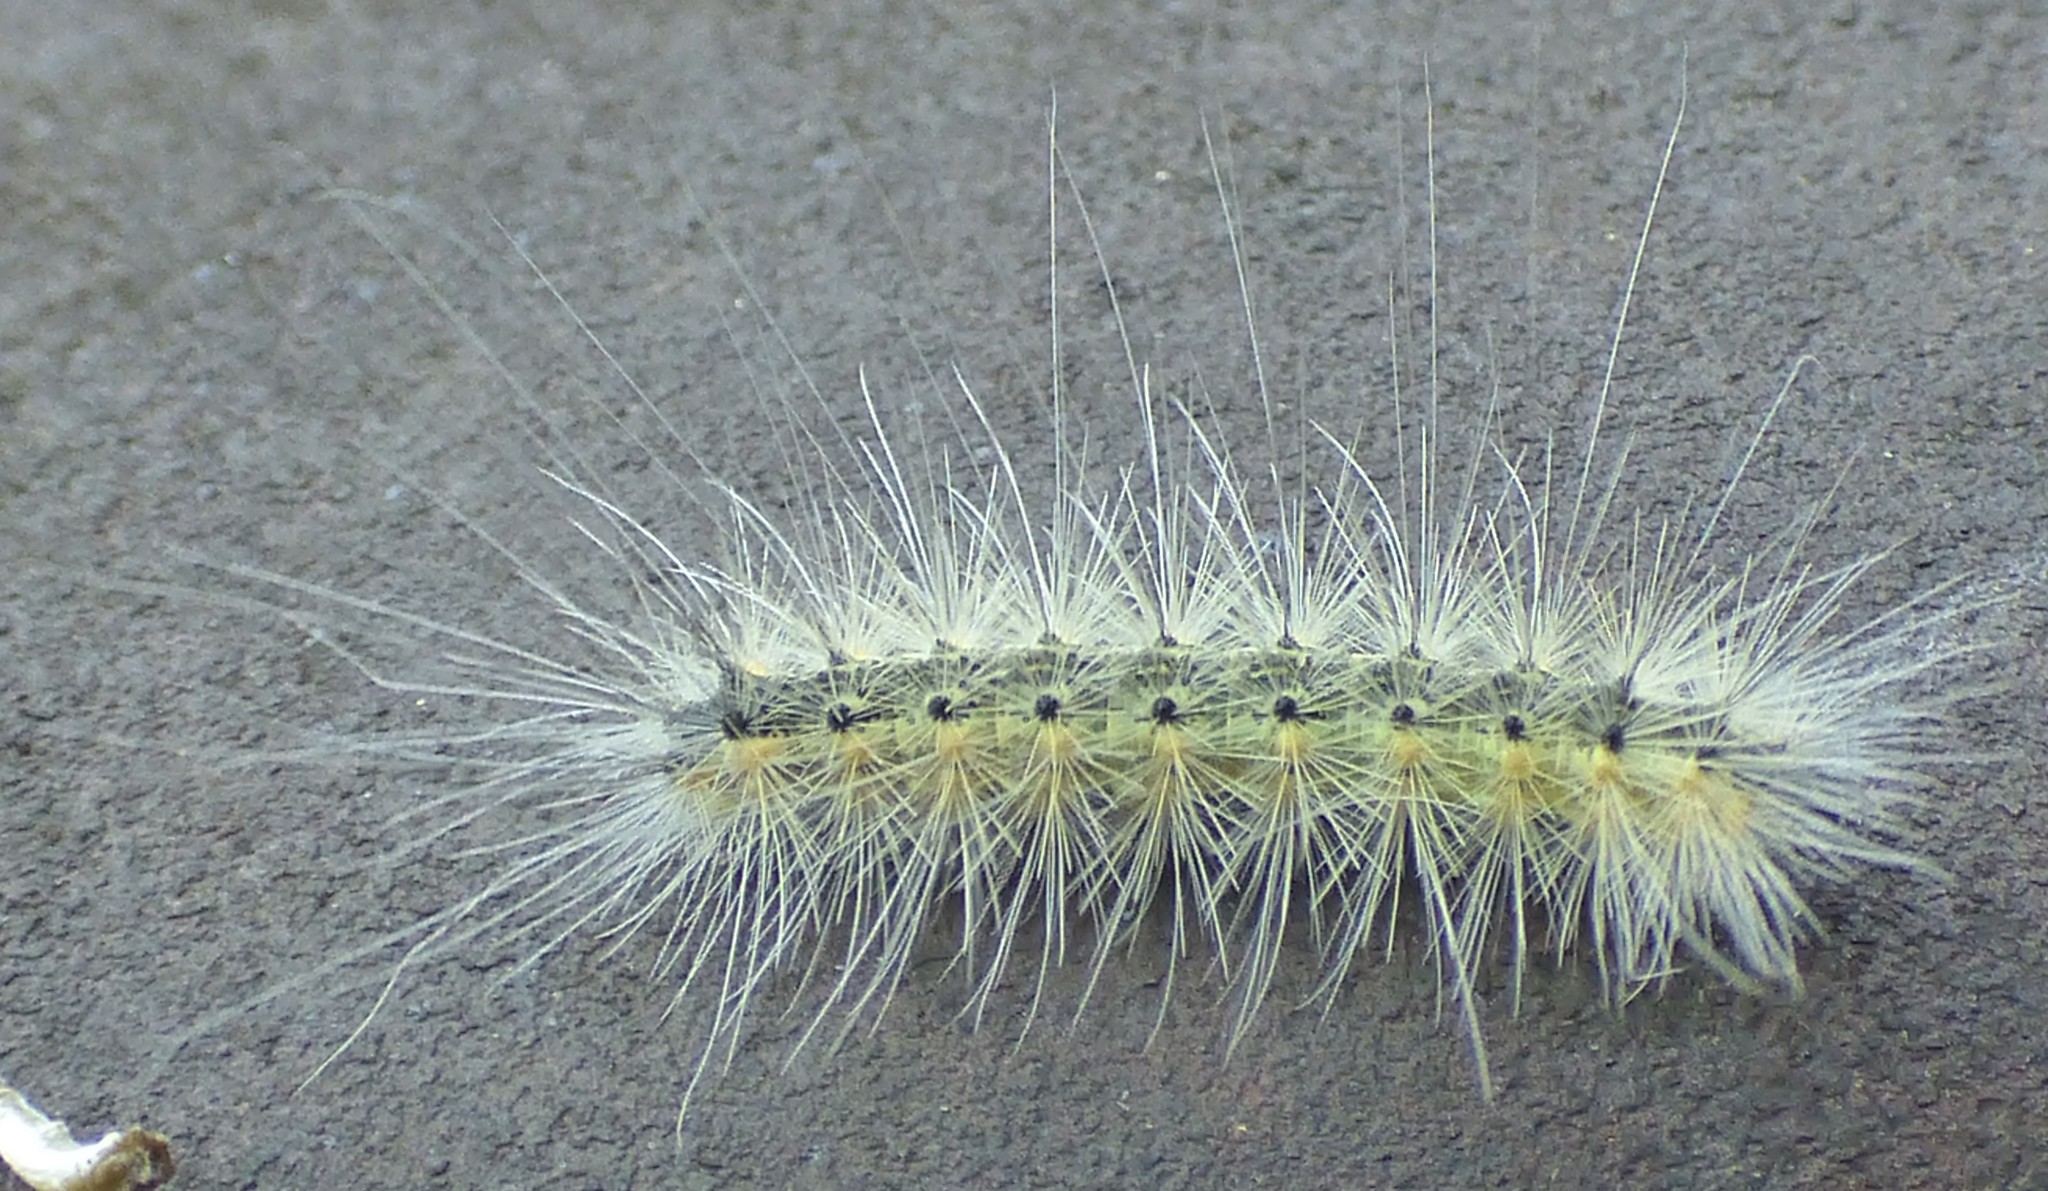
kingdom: Animalia
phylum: Arthropoda
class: Insecta
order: Lepidoptera
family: Erebidae
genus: Hyphantria
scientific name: Hyphantria cunea
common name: American white moth
